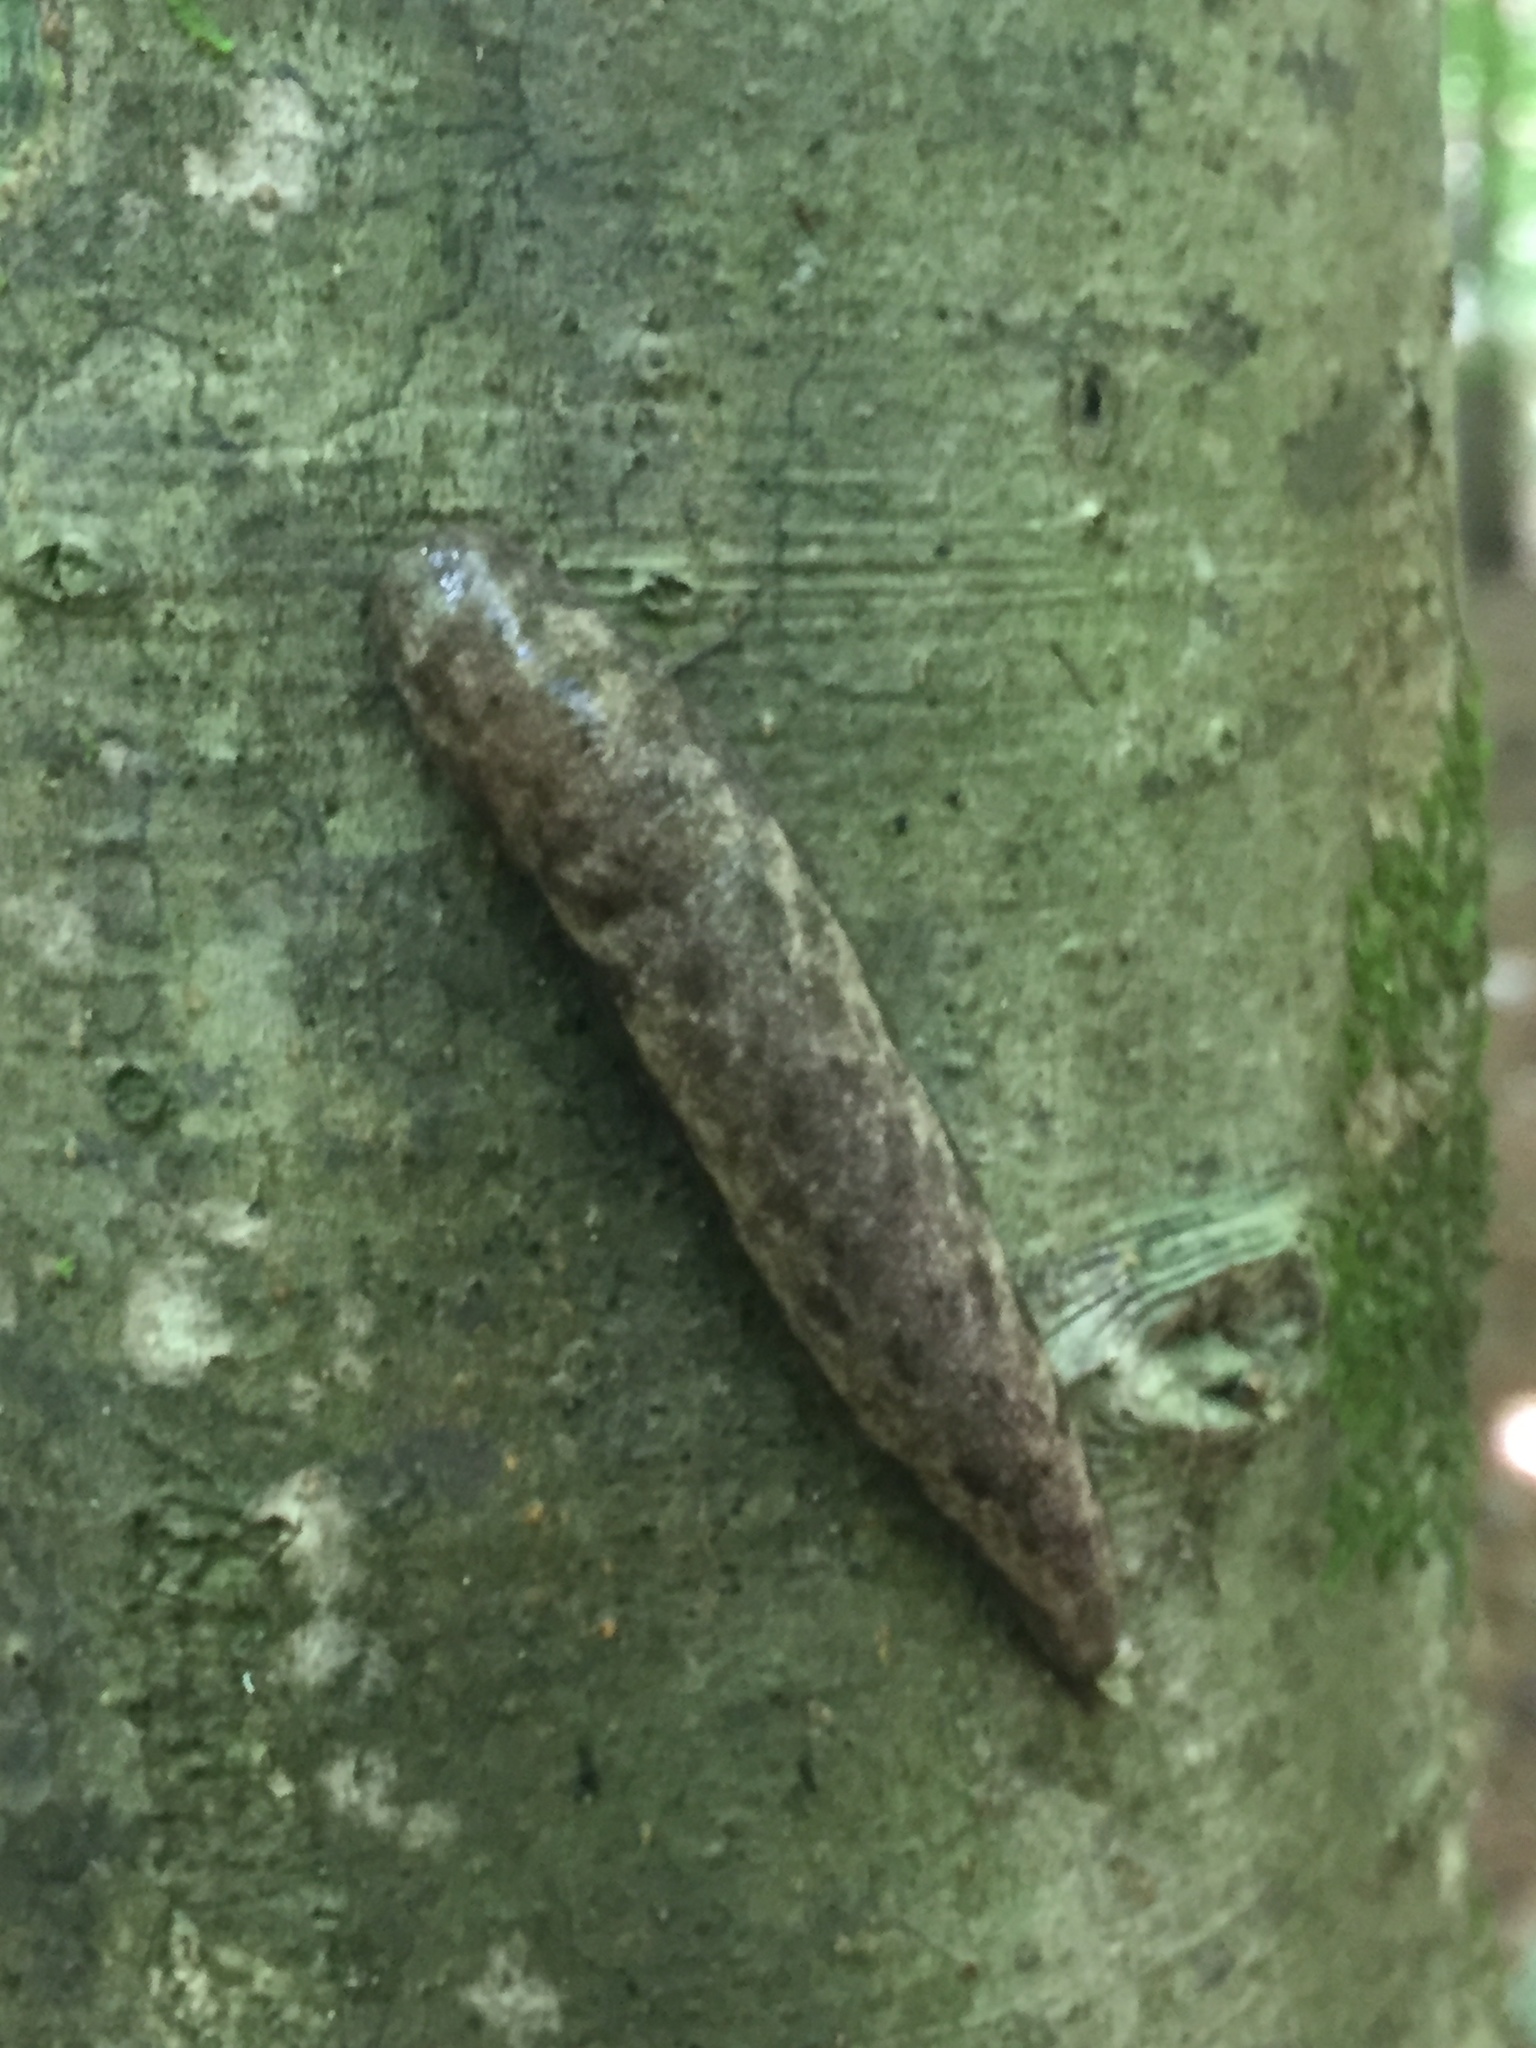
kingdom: Animalia
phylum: Mollusca
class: Gastropoda
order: Stylommatophora
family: Philomycidae
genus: Megapallifera
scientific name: Megapallifera mutabilis
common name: Changeable mantleslug
